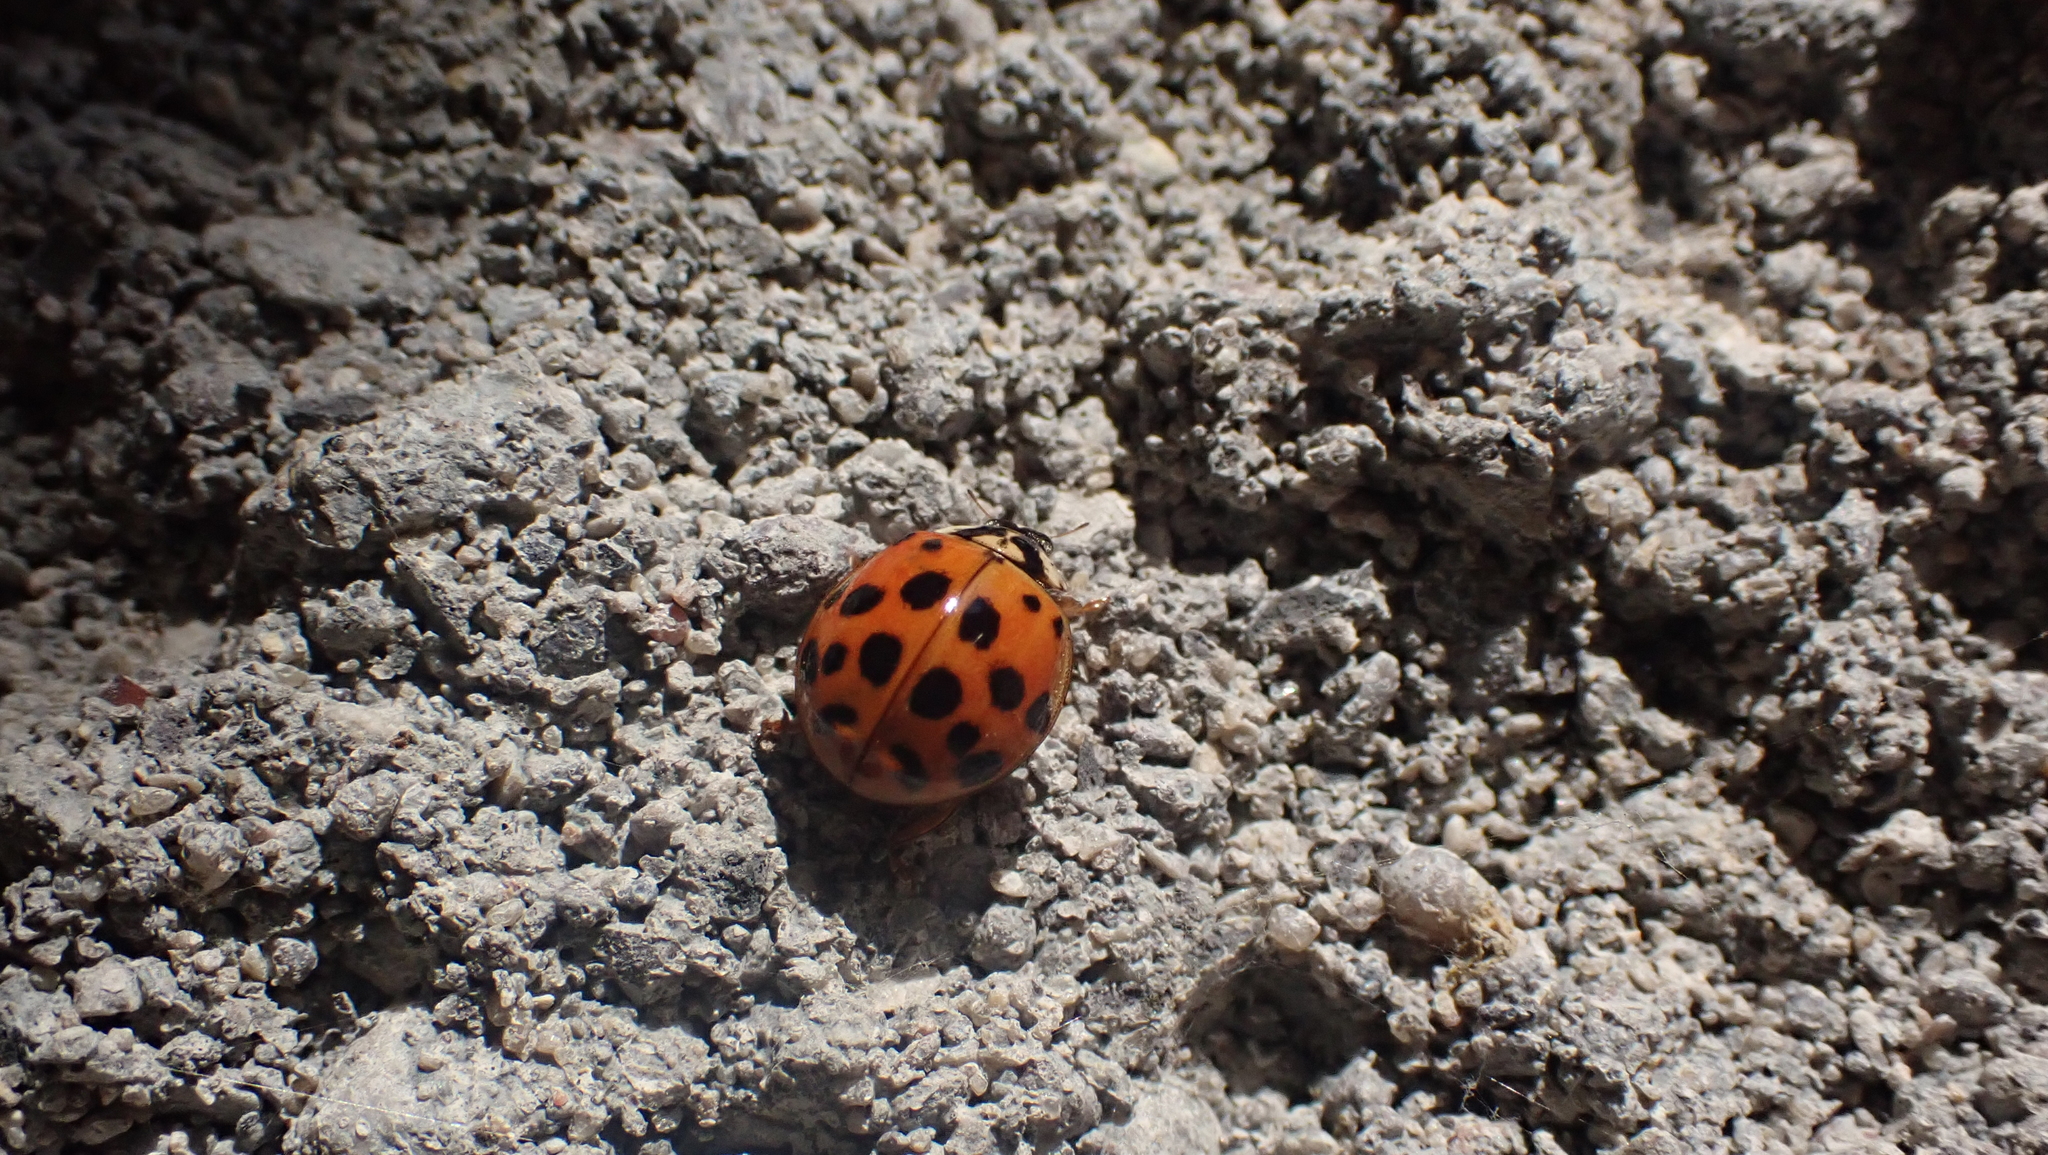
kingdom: Animalia
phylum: Arthropoda
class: Insecta
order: Coleoptera
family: Coccinellidae
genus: Harmonia
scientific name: Harmonia axyridis
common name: Harlequin ladybird
